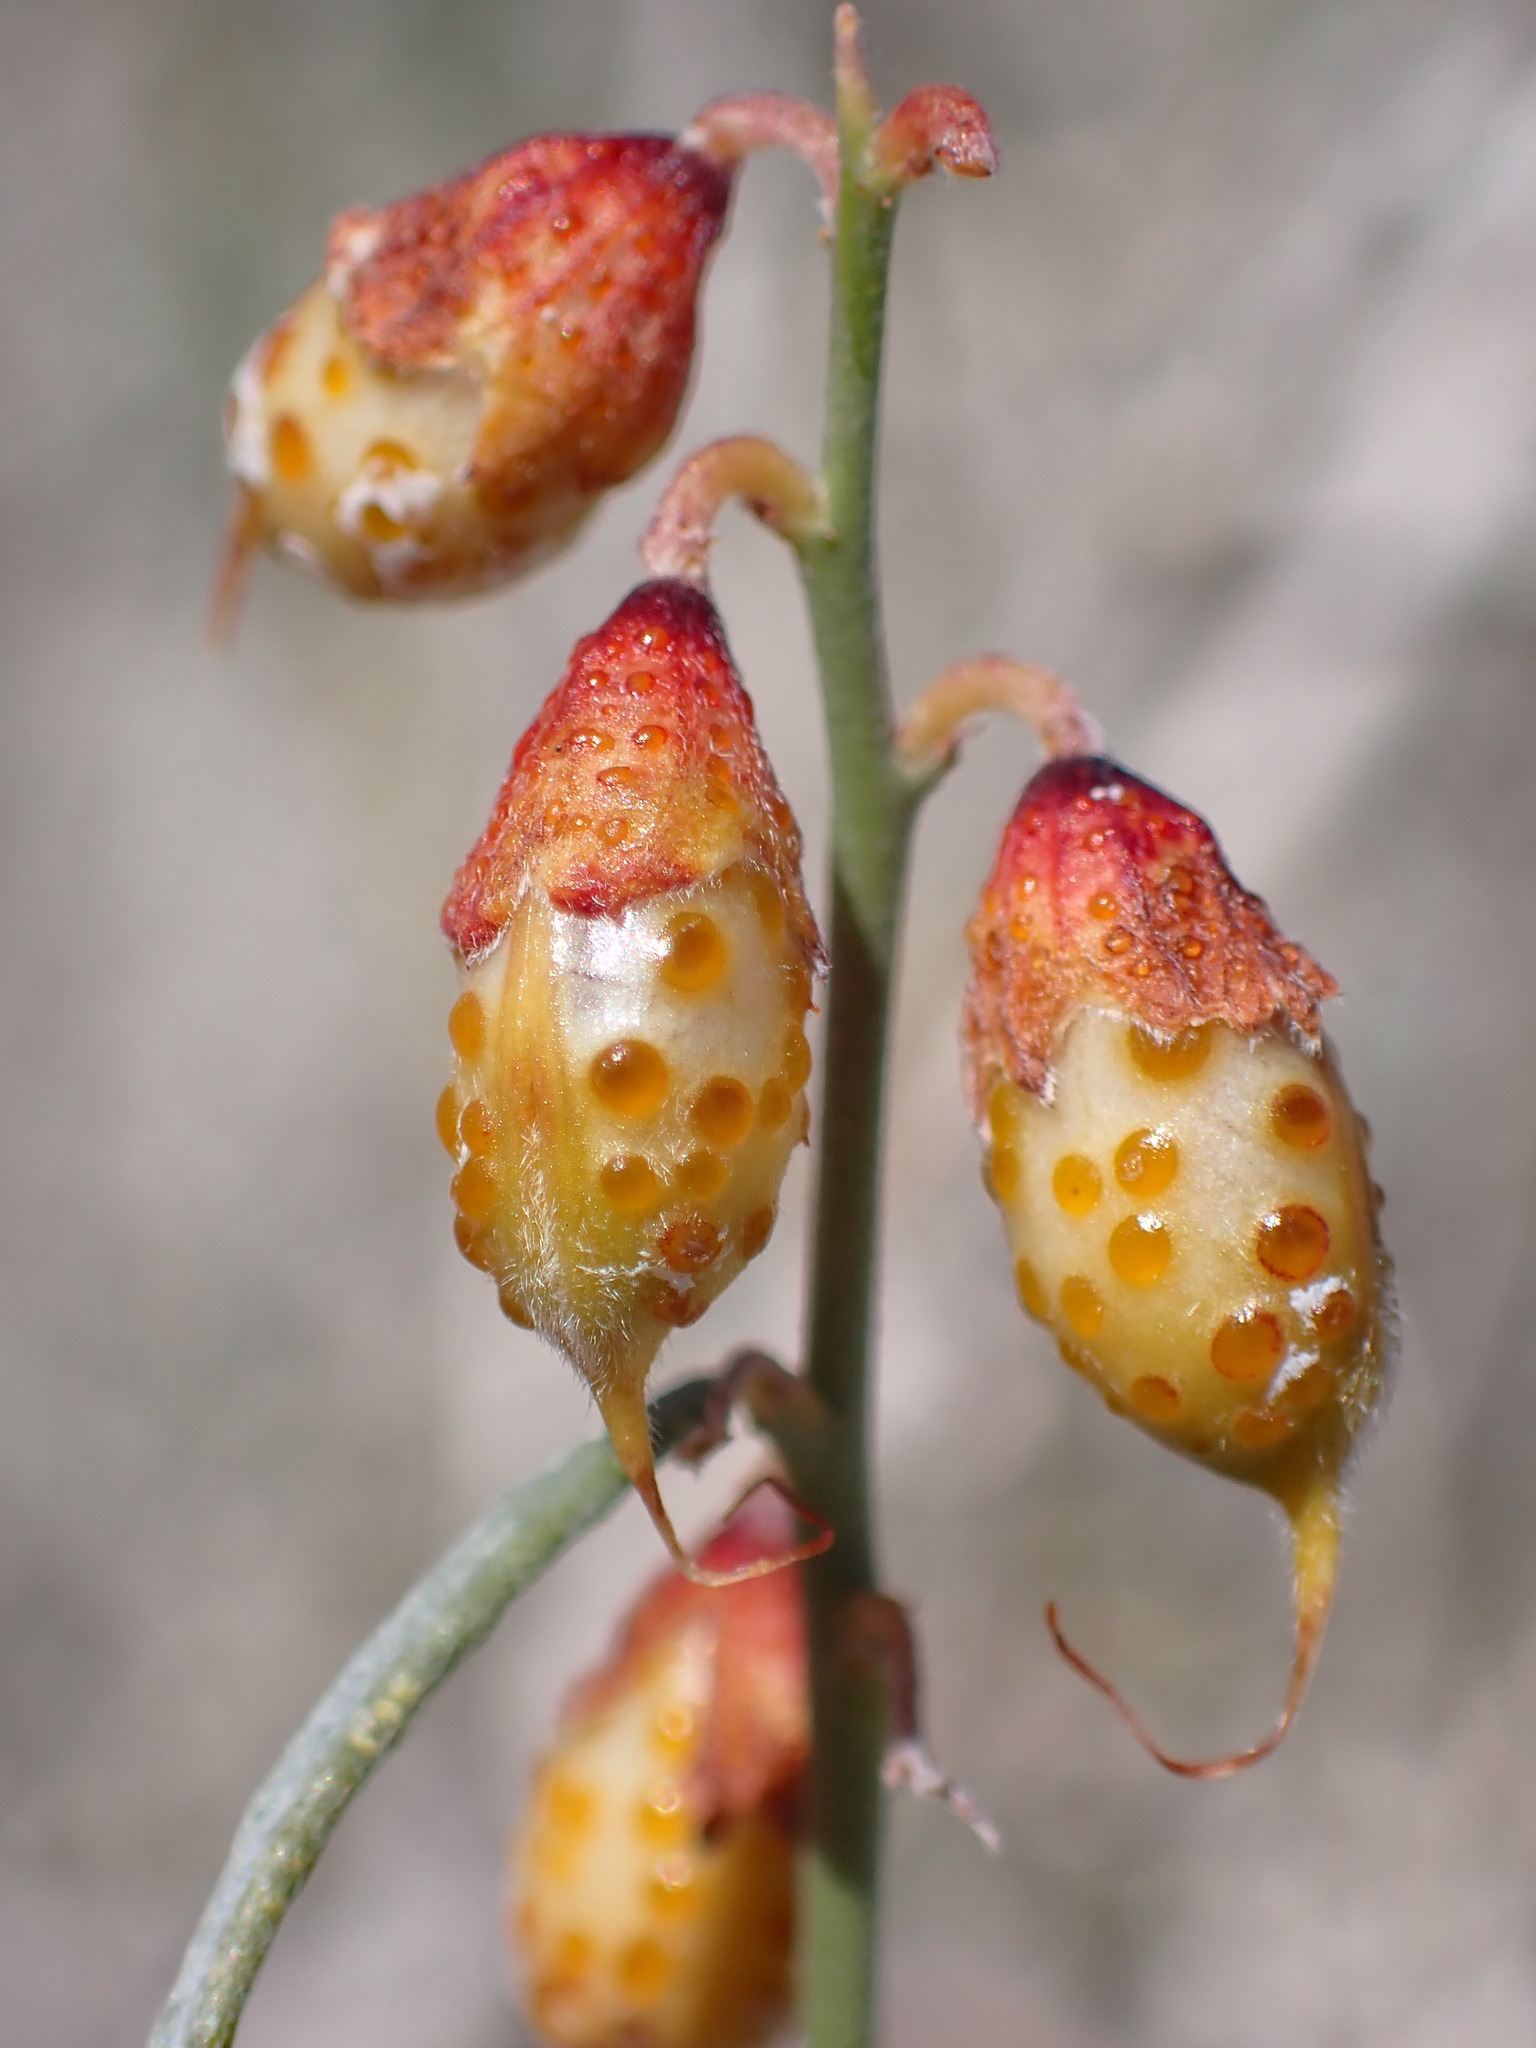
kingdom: Plantae
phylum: Tracheophyta
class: Magnoliopsida
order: Fabales
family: Fabaceae
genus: Psorothamnus
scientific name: Psorothamnus schottii
